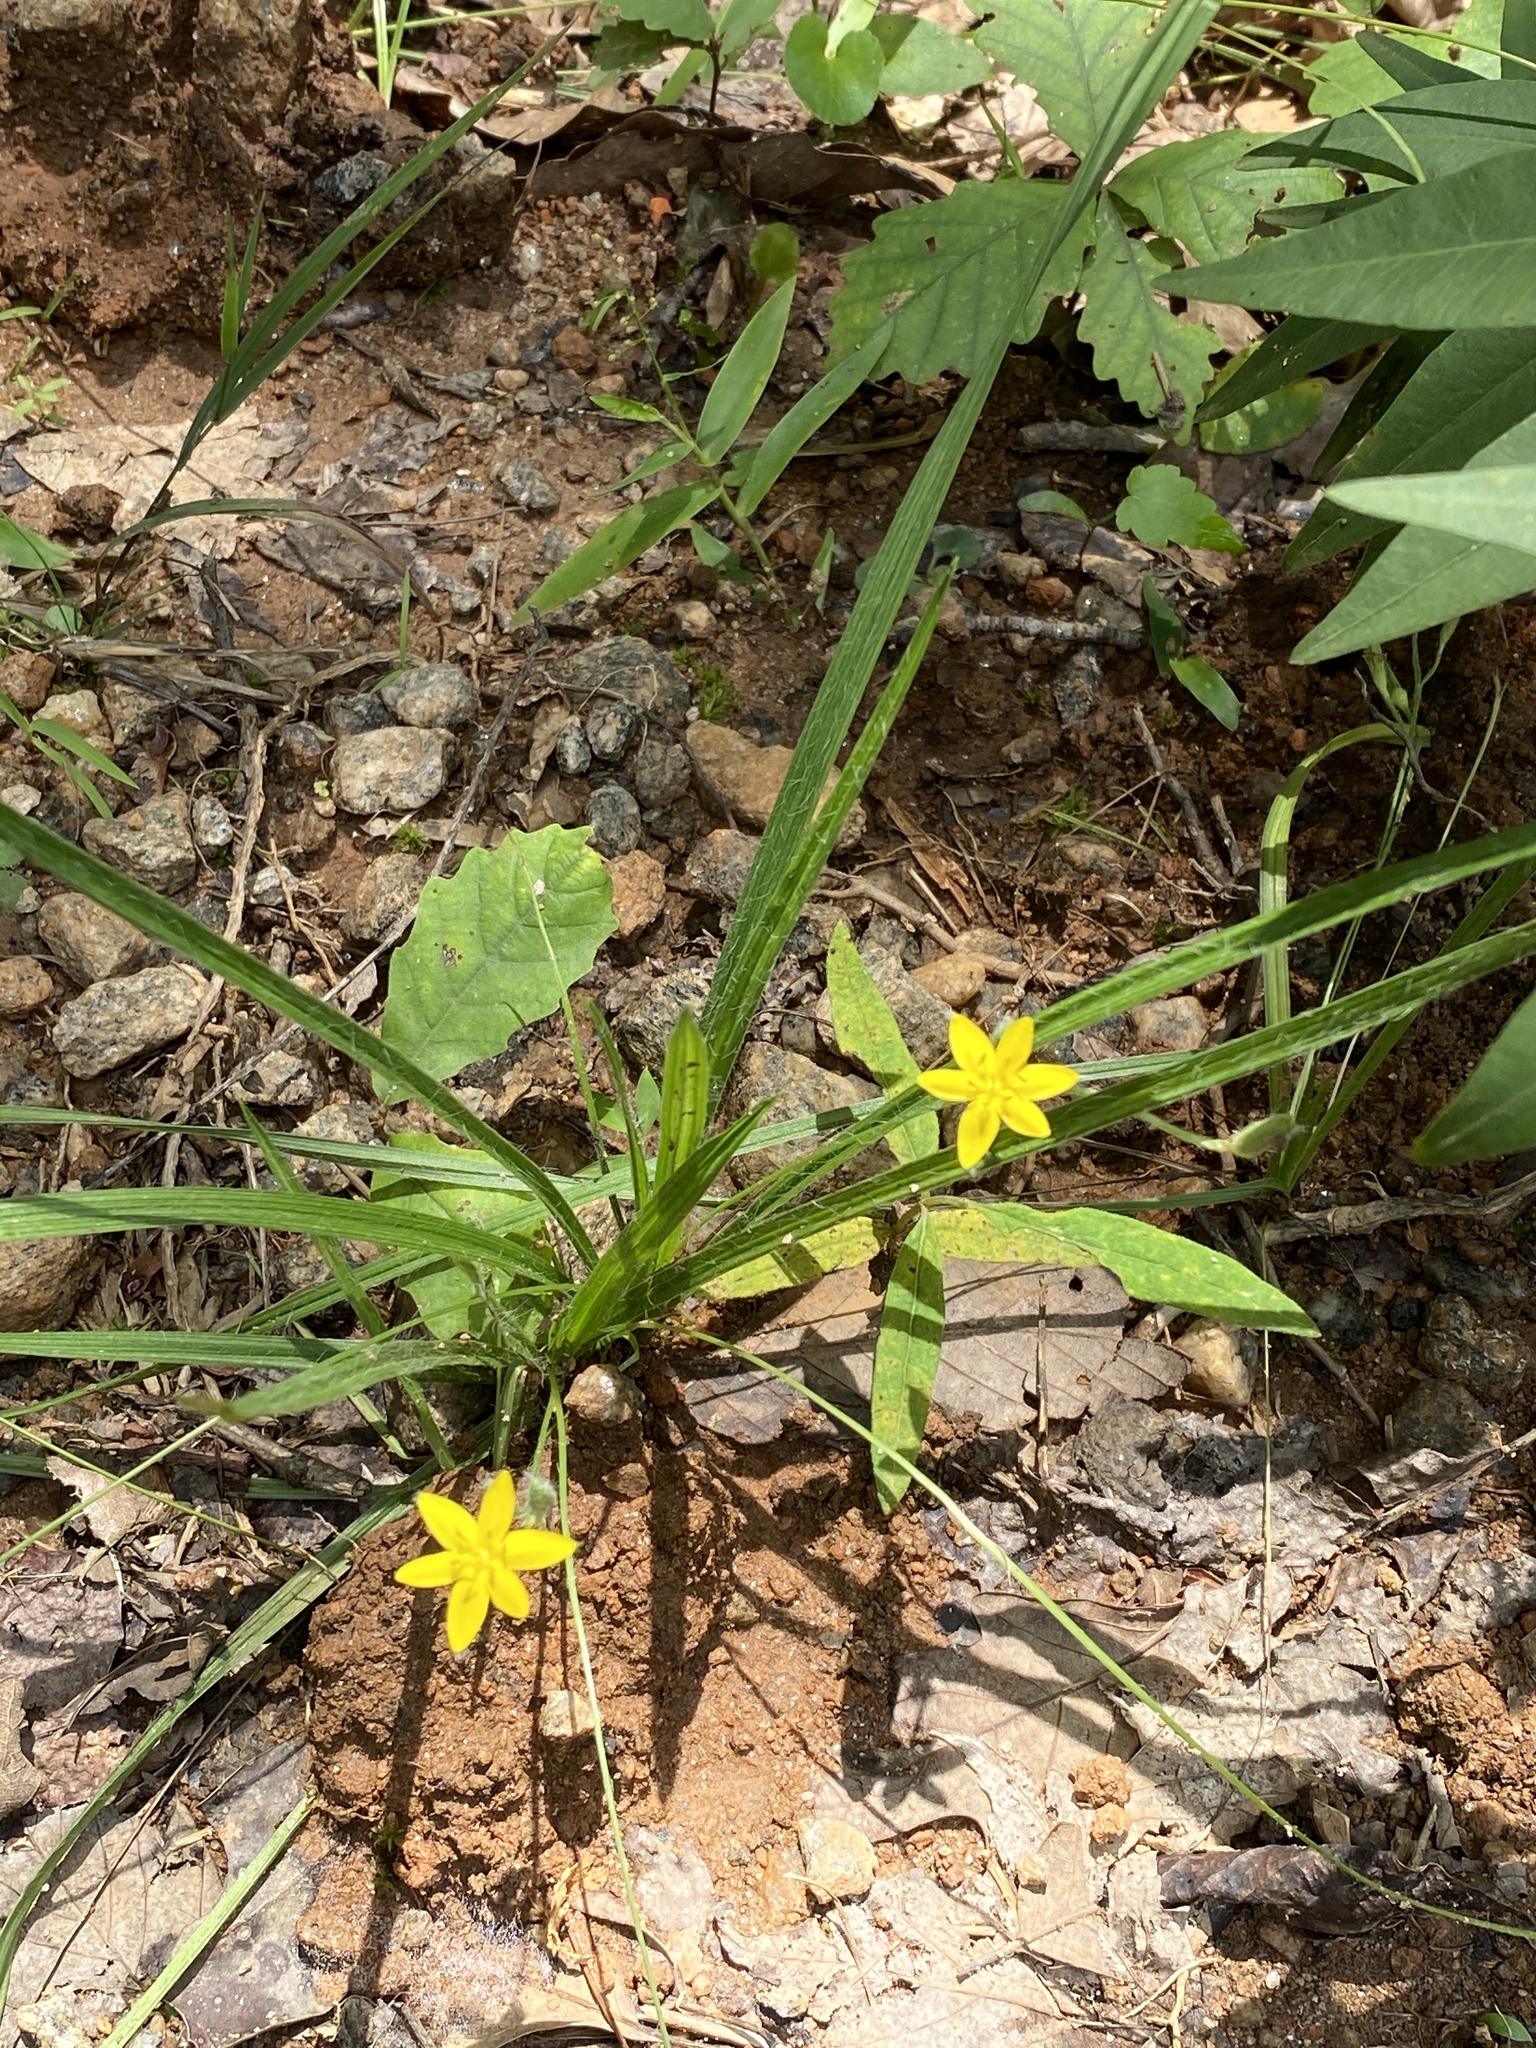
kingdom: Plantae
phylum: Tracheophyta
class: Liliopsida
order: Asparagales
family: Hypoxidaceae
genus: Hypoxis
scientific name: Hypoxis hirsuta
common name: Common goldstar
